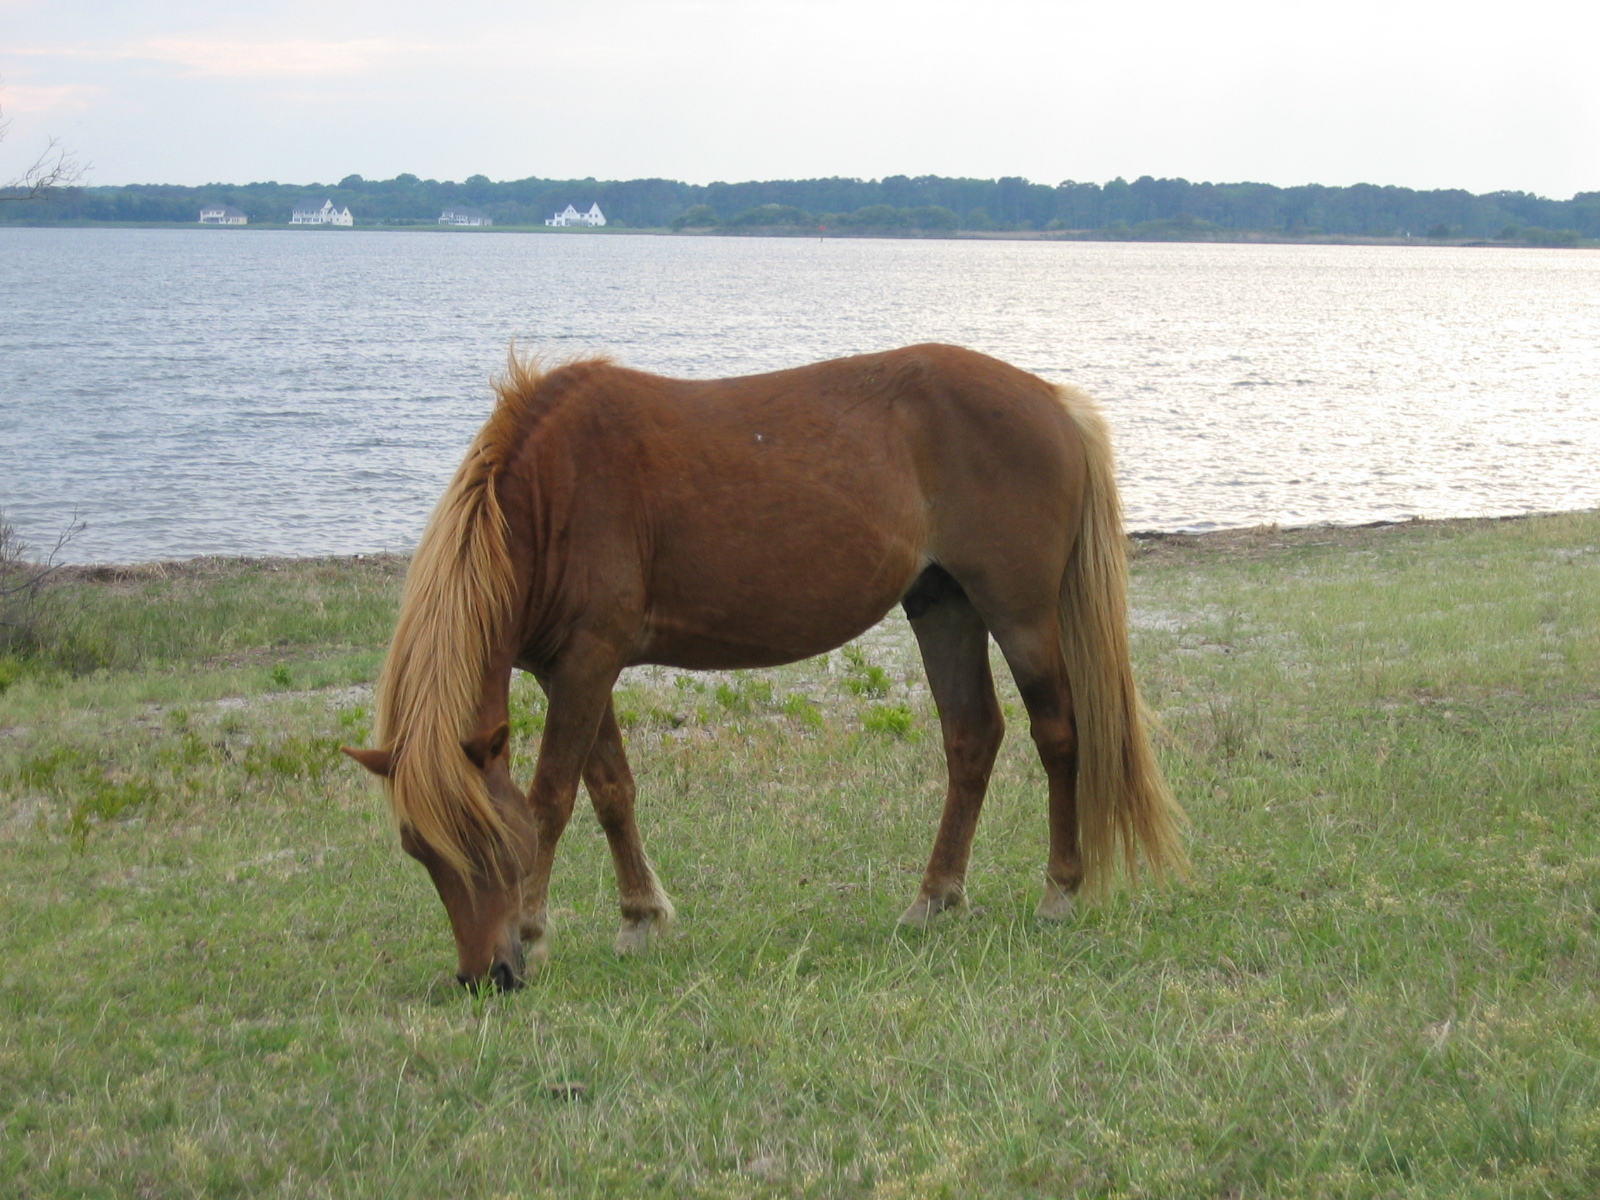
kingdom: Animalia
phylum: Chordata
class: Mammalia
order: Perissodactyla
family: Equidae
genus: Equus
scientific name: Equus caballus
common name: Horse
